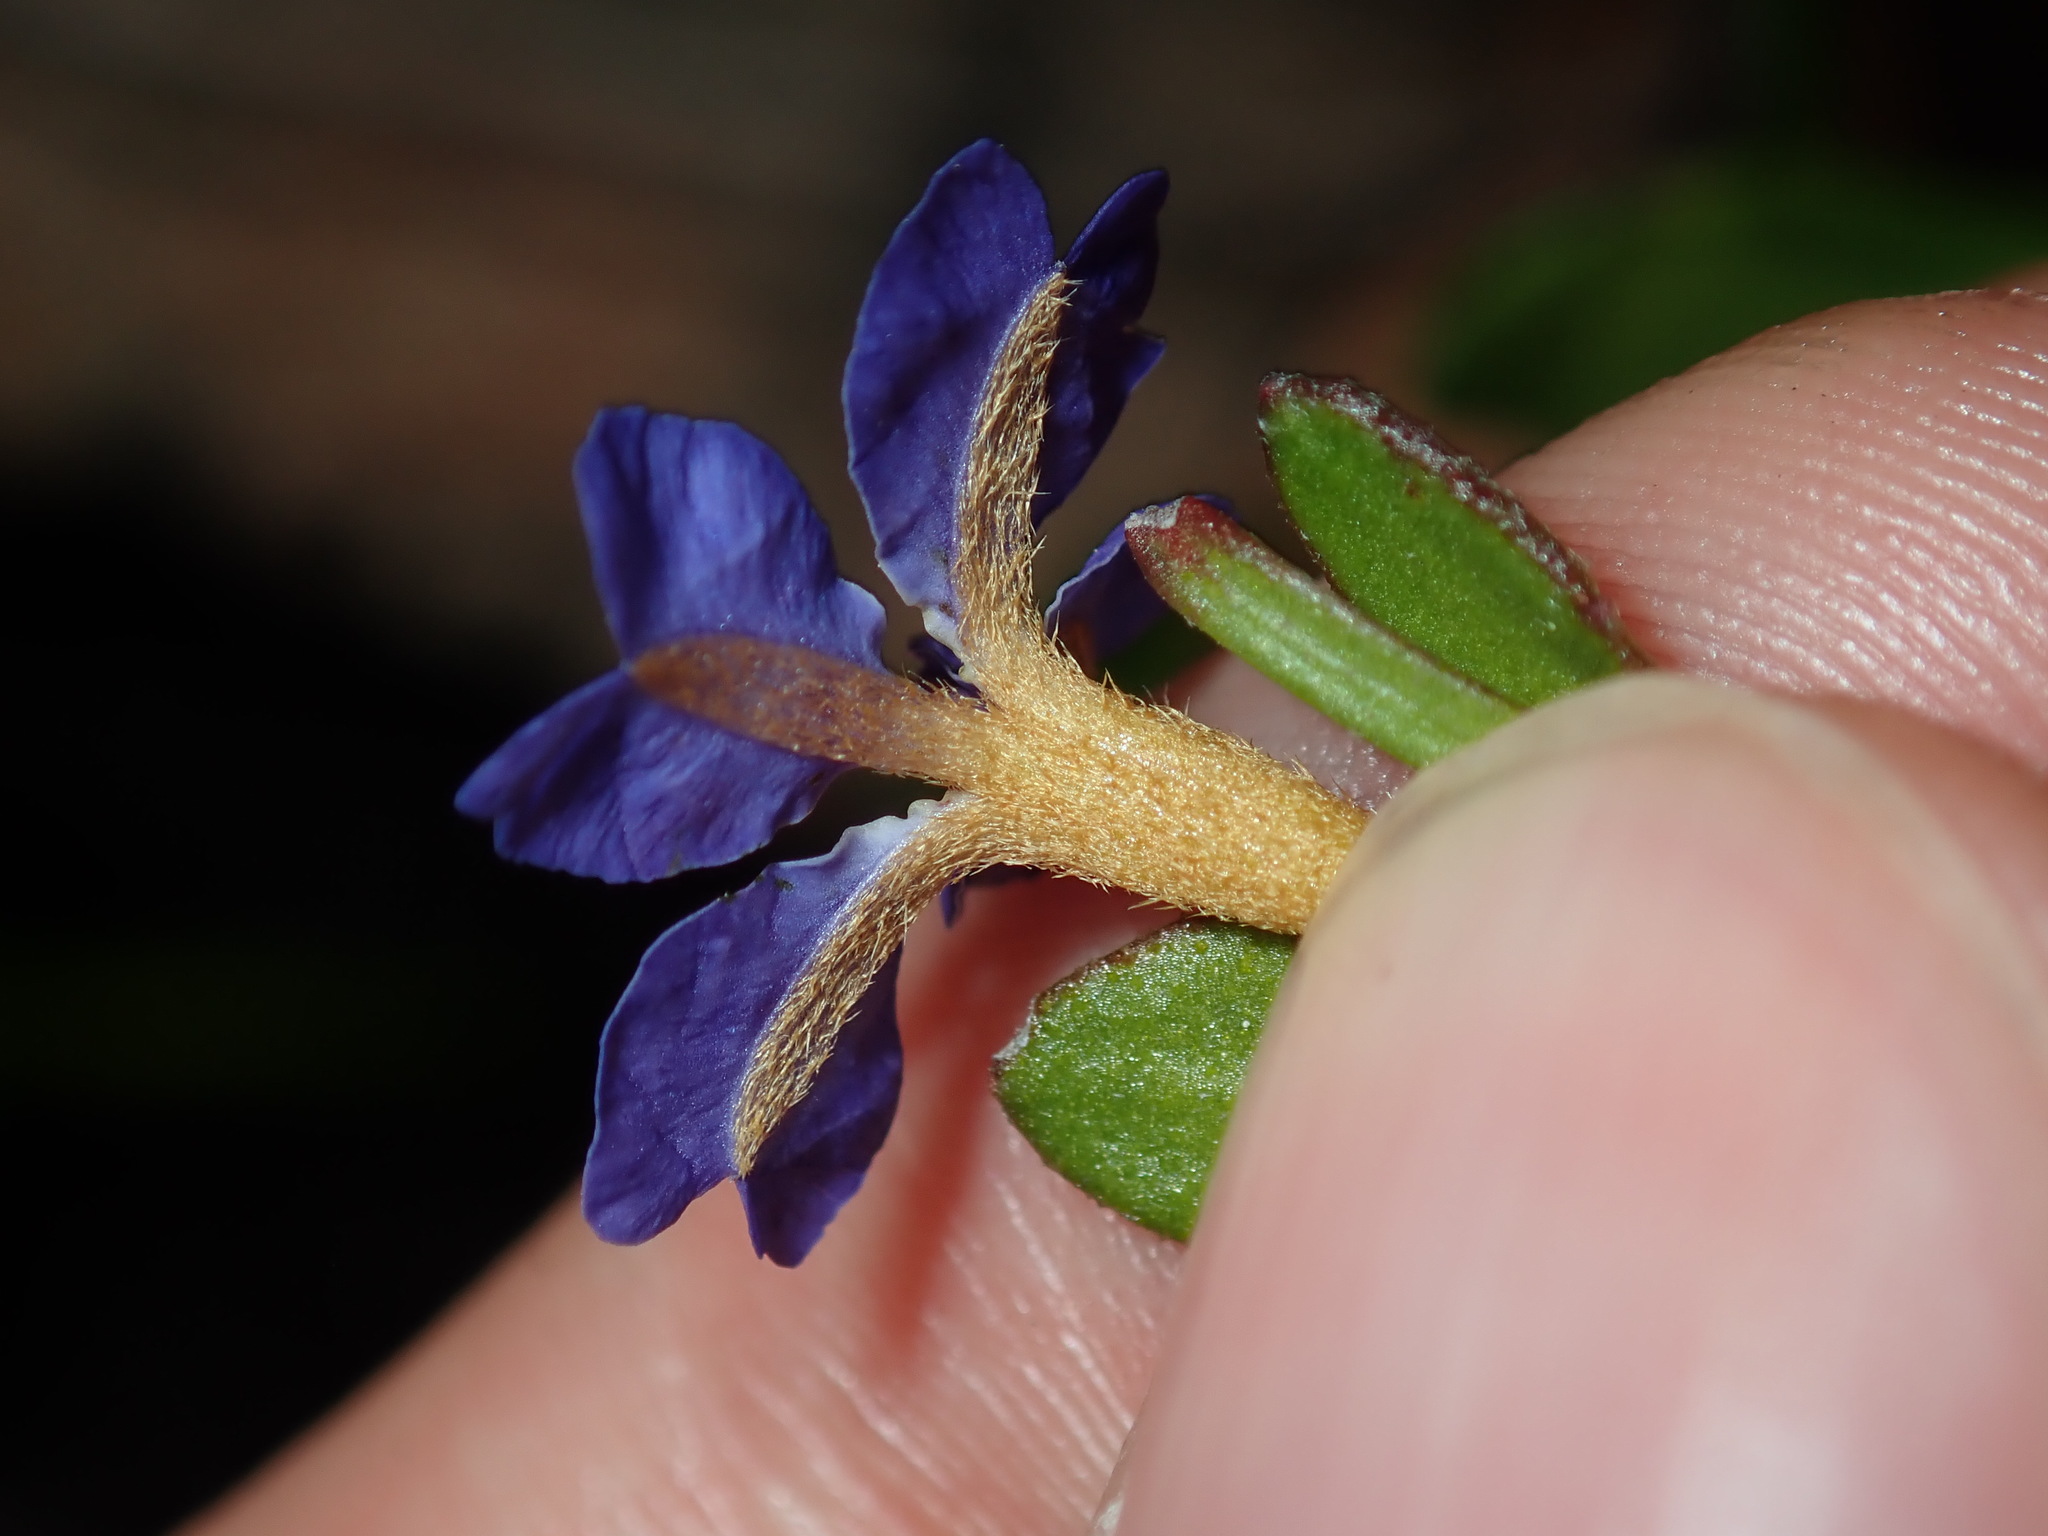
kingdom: Plantae
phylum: Tracheophyta
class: Magnoliopsida
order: Asterales
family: Goodeniaceae
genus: Dampiera
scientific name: Dampiera stricta
